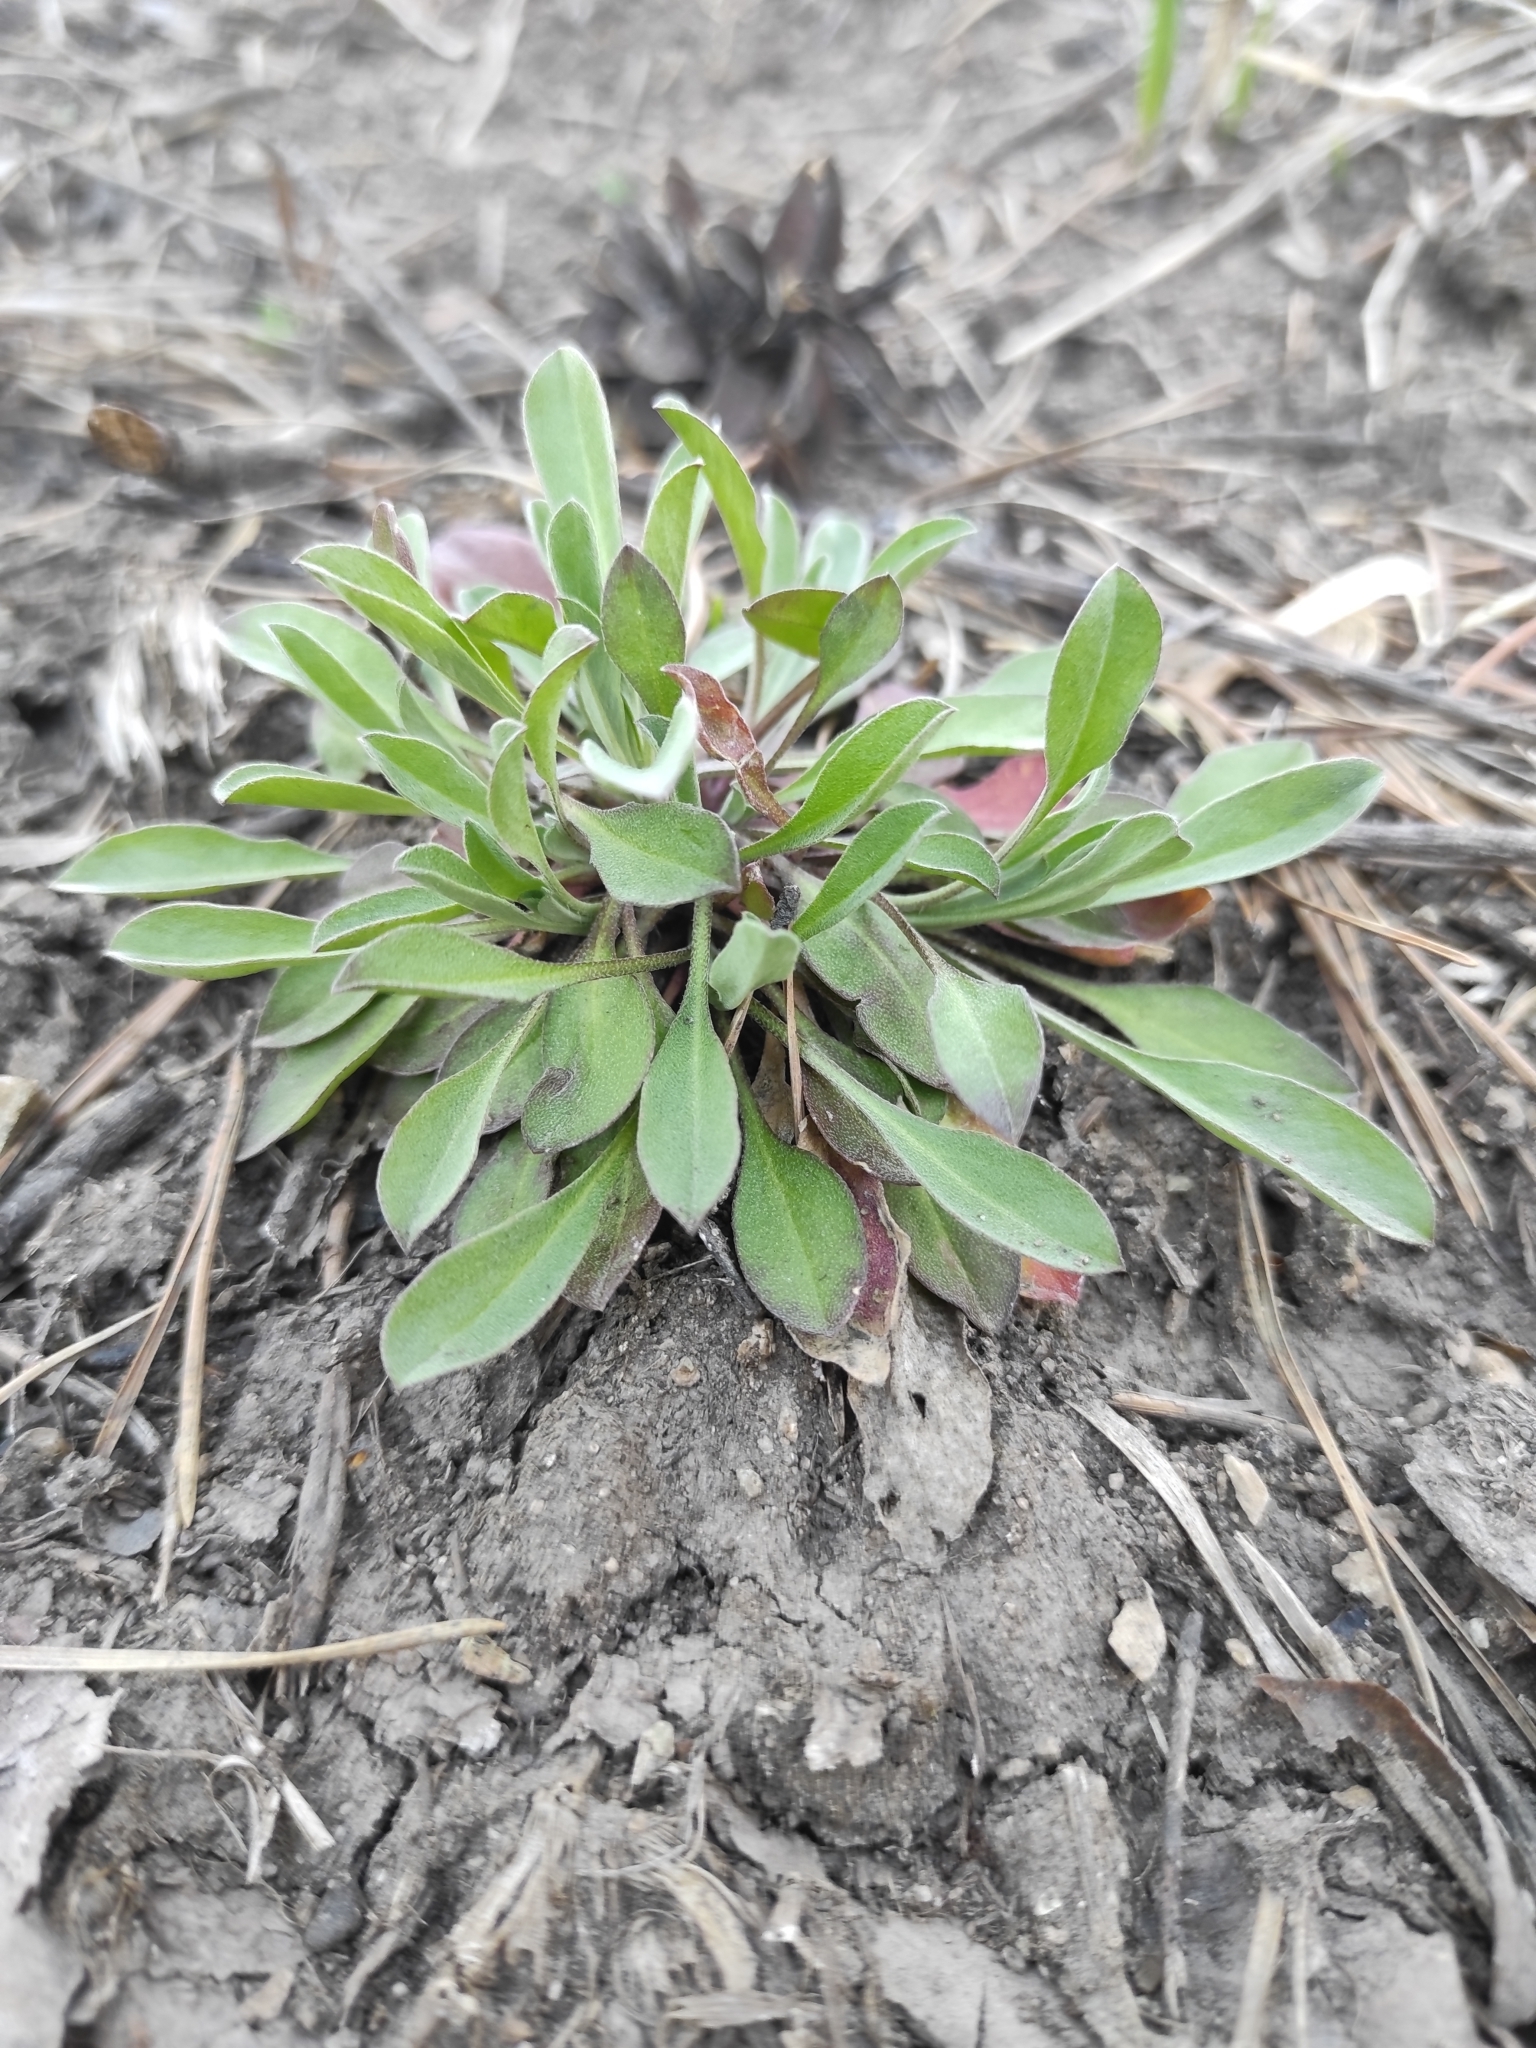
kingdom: Plantae
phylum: Tracheophyta
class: Magnoliopsida
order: Brassicales
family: Brassicaceae
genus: Berteroa
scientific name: Berteroa incana
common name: Hoary alison
